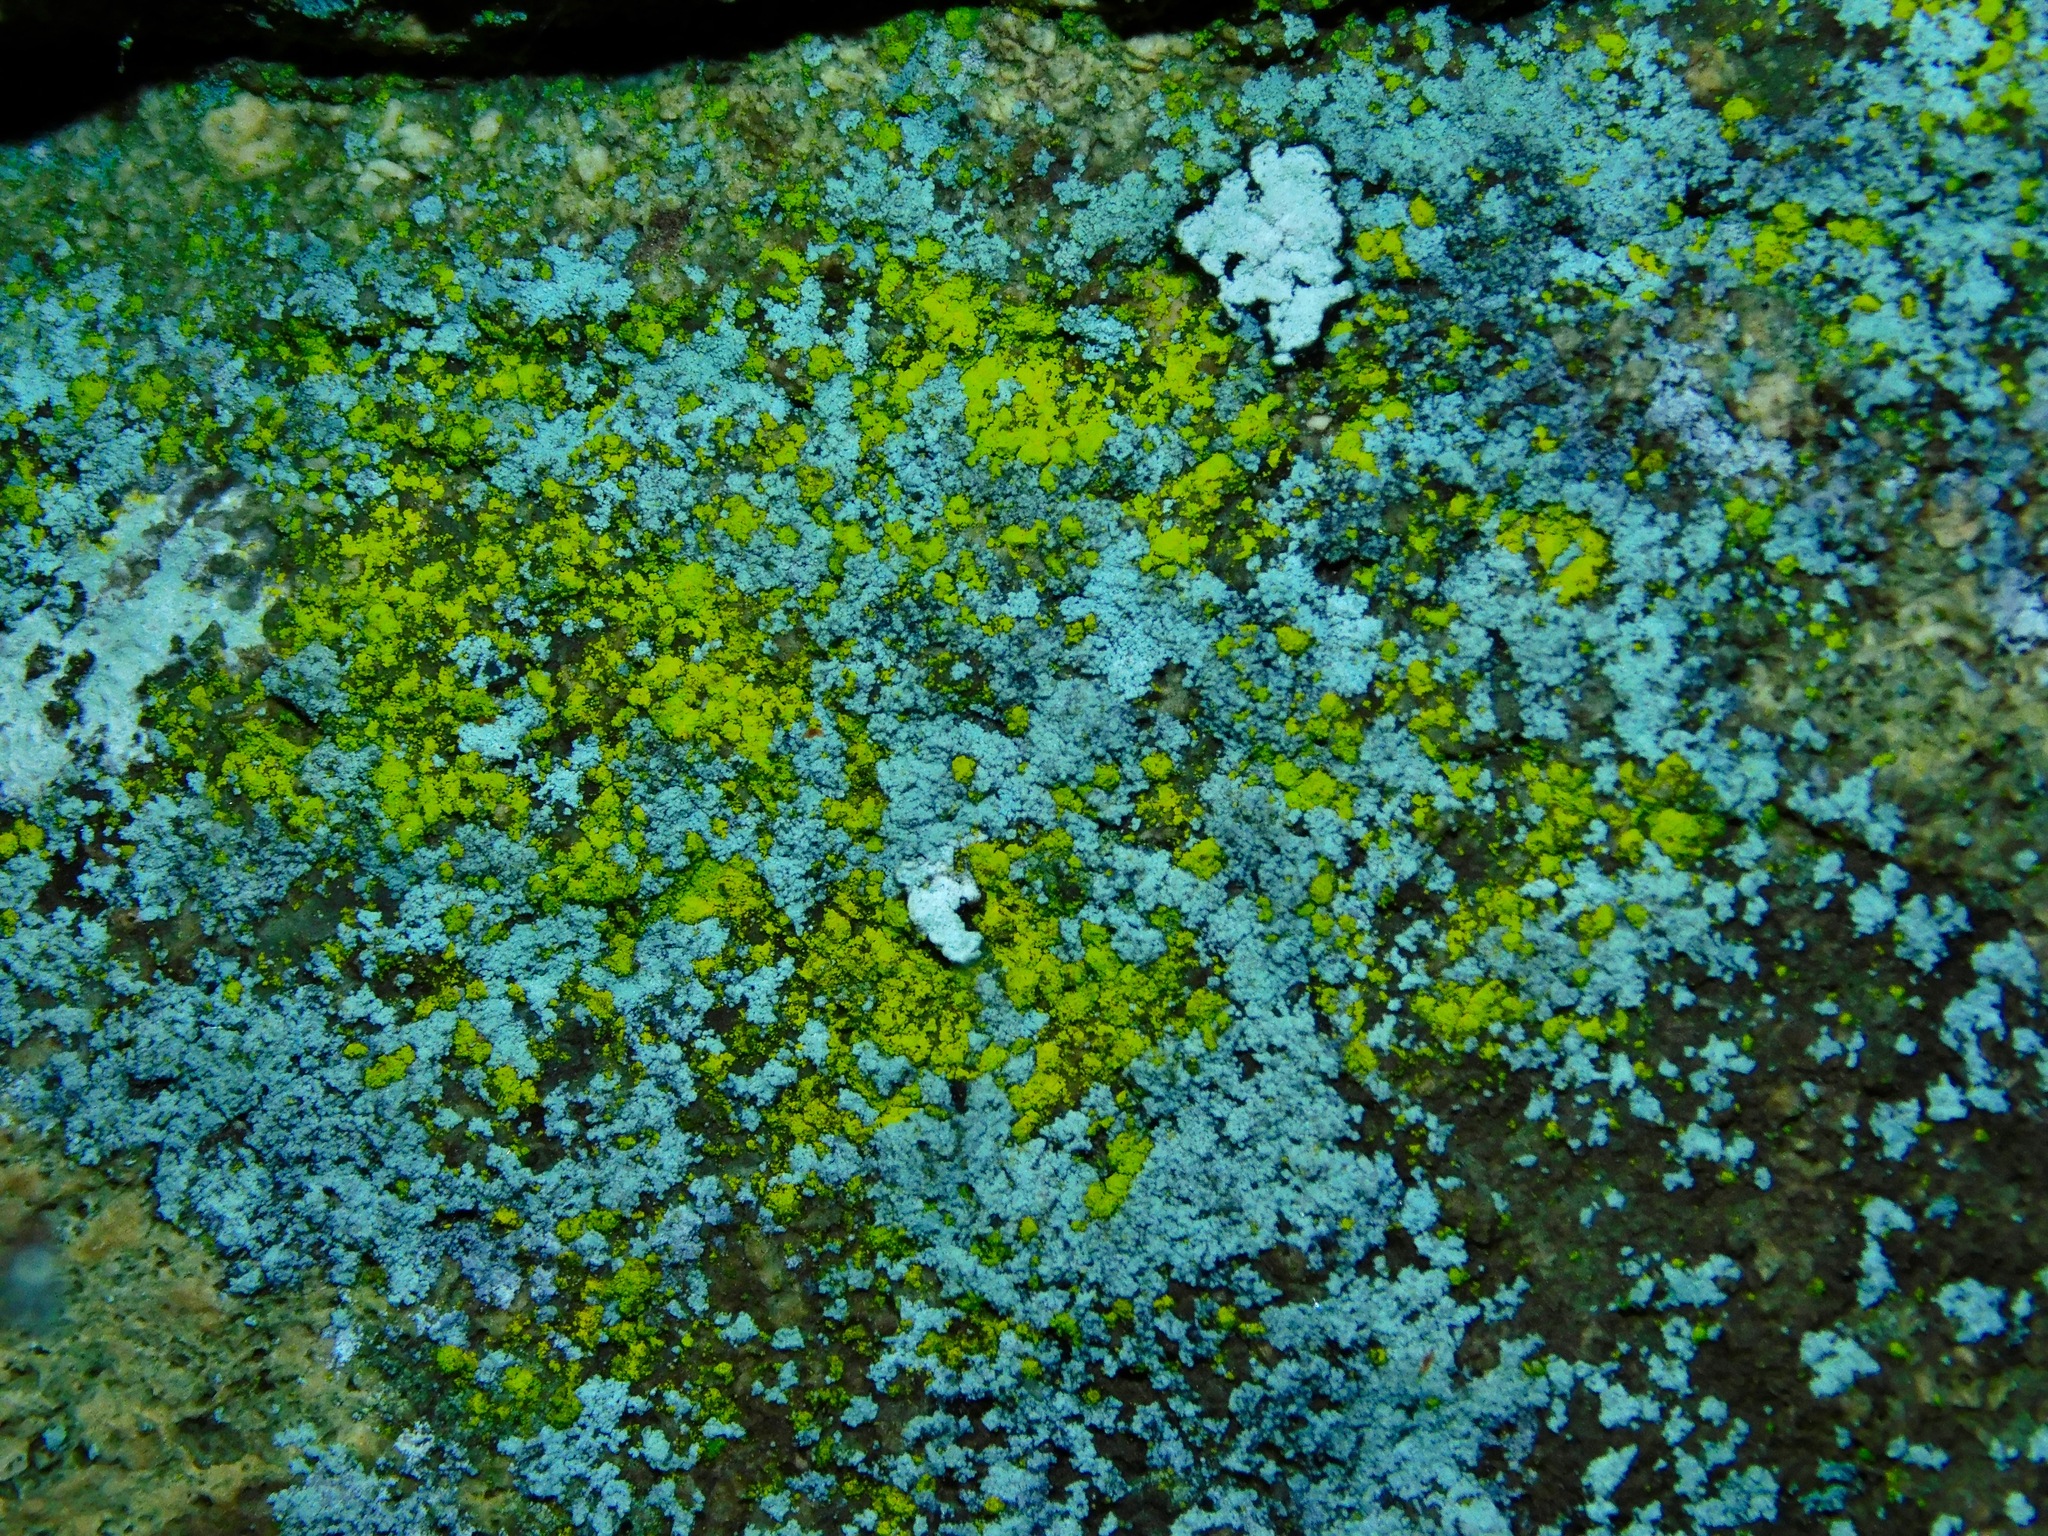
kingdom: Fungi
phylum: Ascomycota
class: Arthoniomycetes
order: Arthoniales
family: Chrysotrichaceae
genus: Chrysothrix
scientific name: Chrysothrix onokoensis
